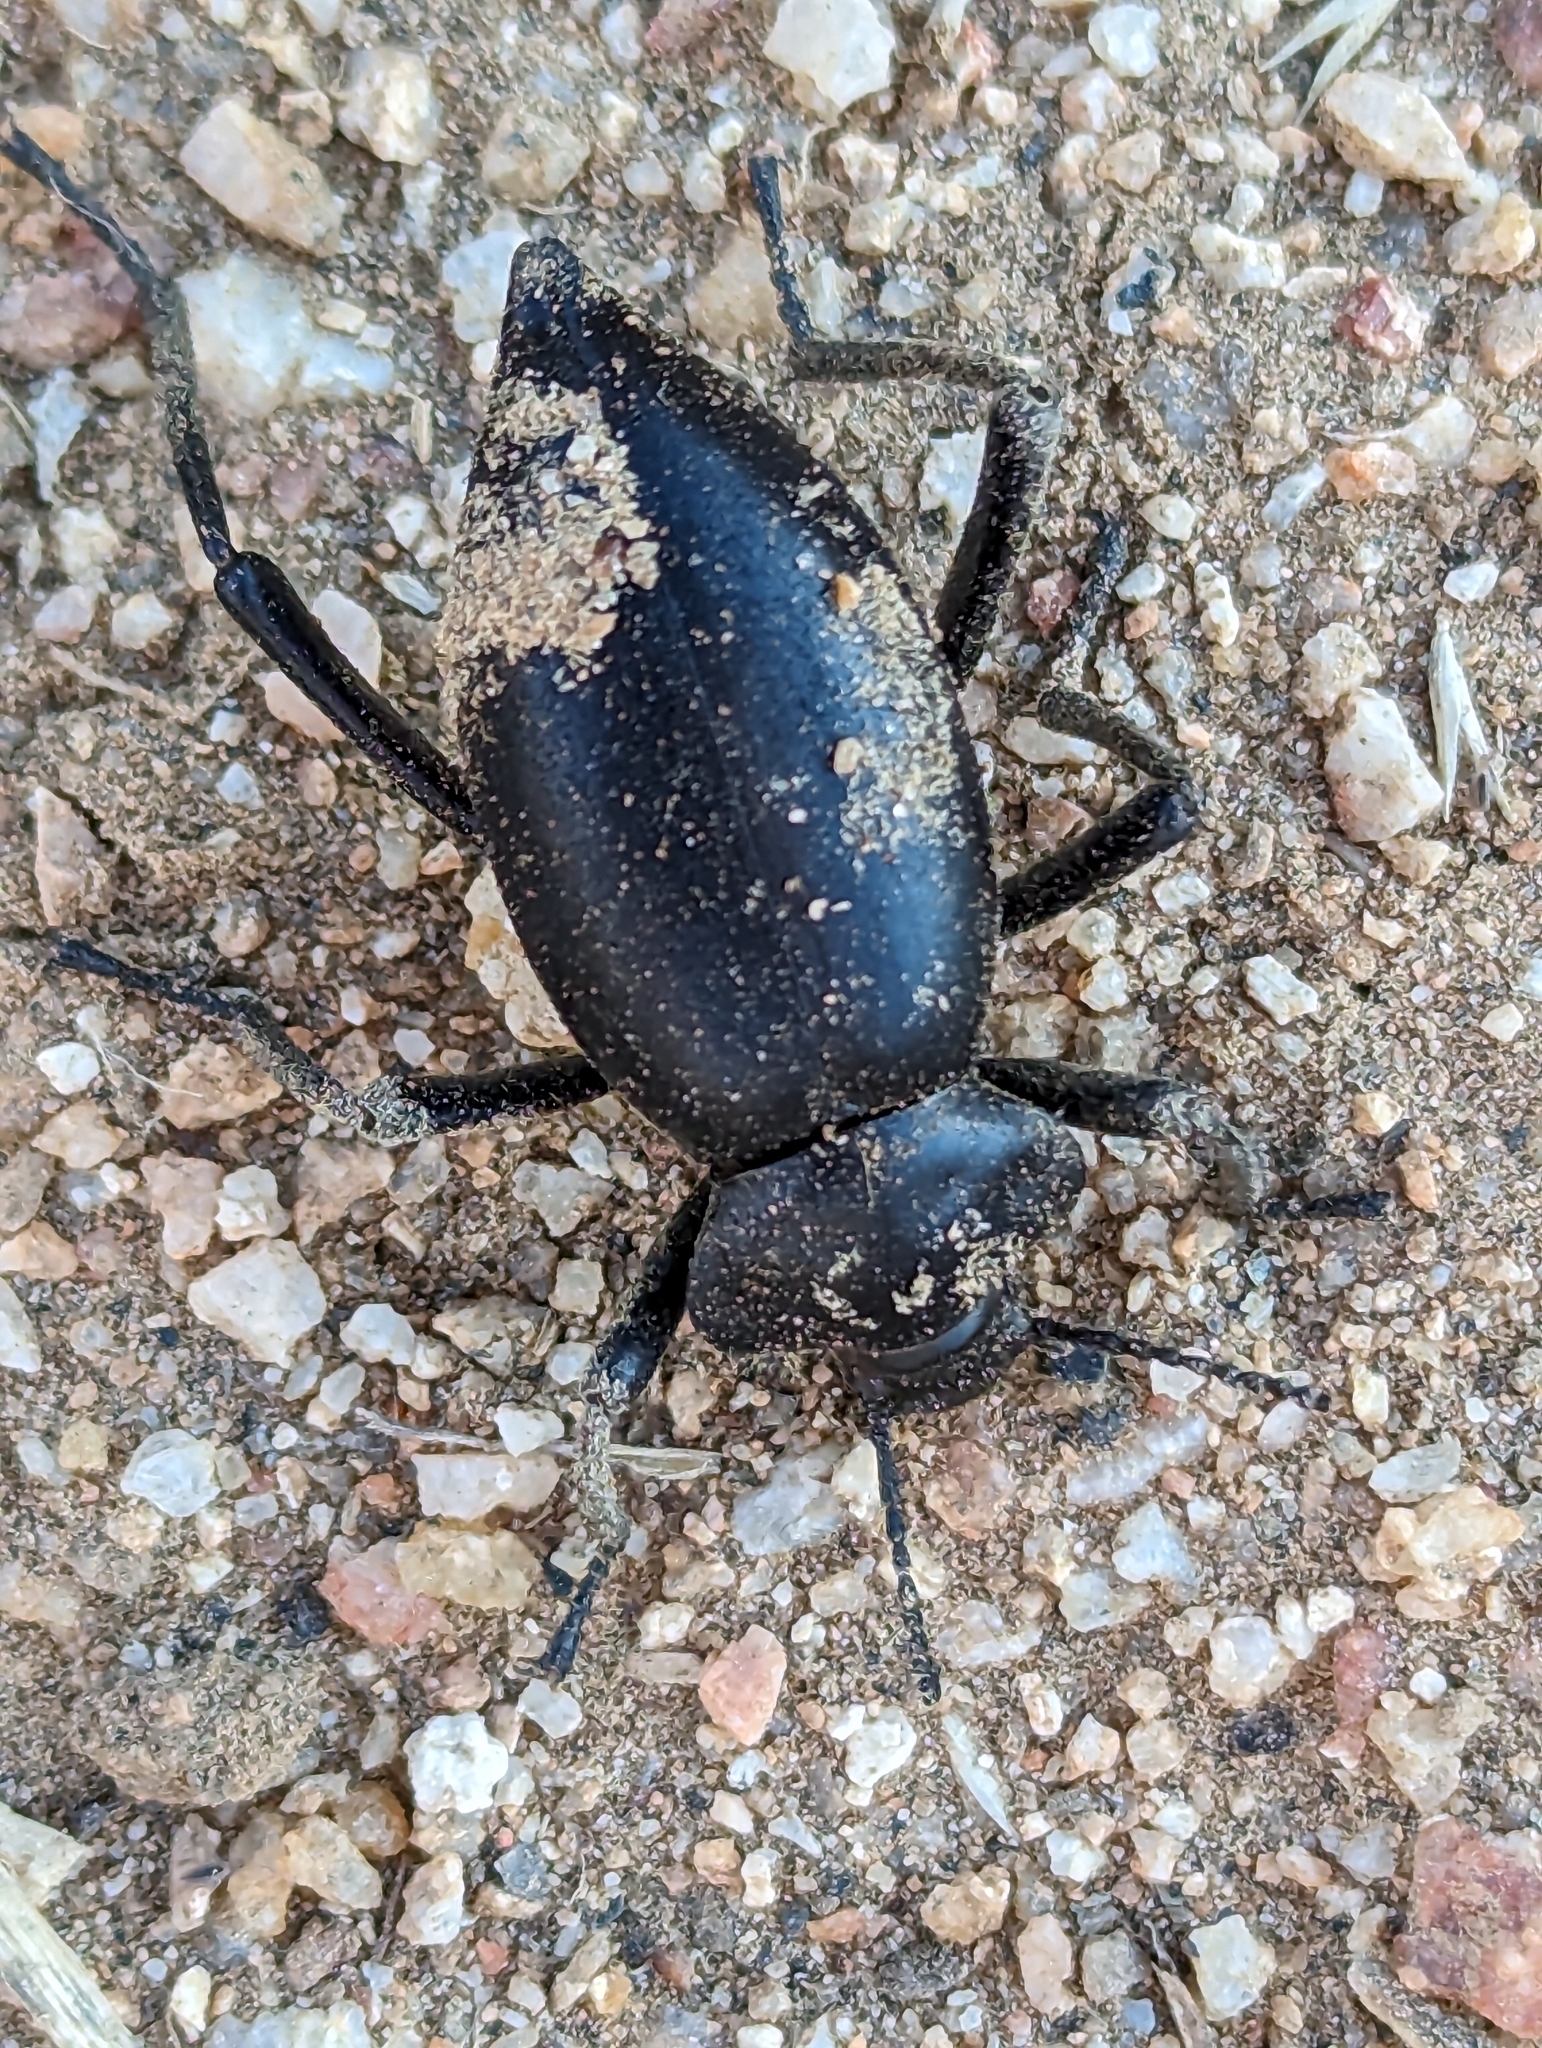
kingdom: Animalia
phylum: Arthropoda
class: Insecta
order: Coleoptera
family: Tenebrionidae
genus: Eleodes
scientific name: Eleodes acuticauda
